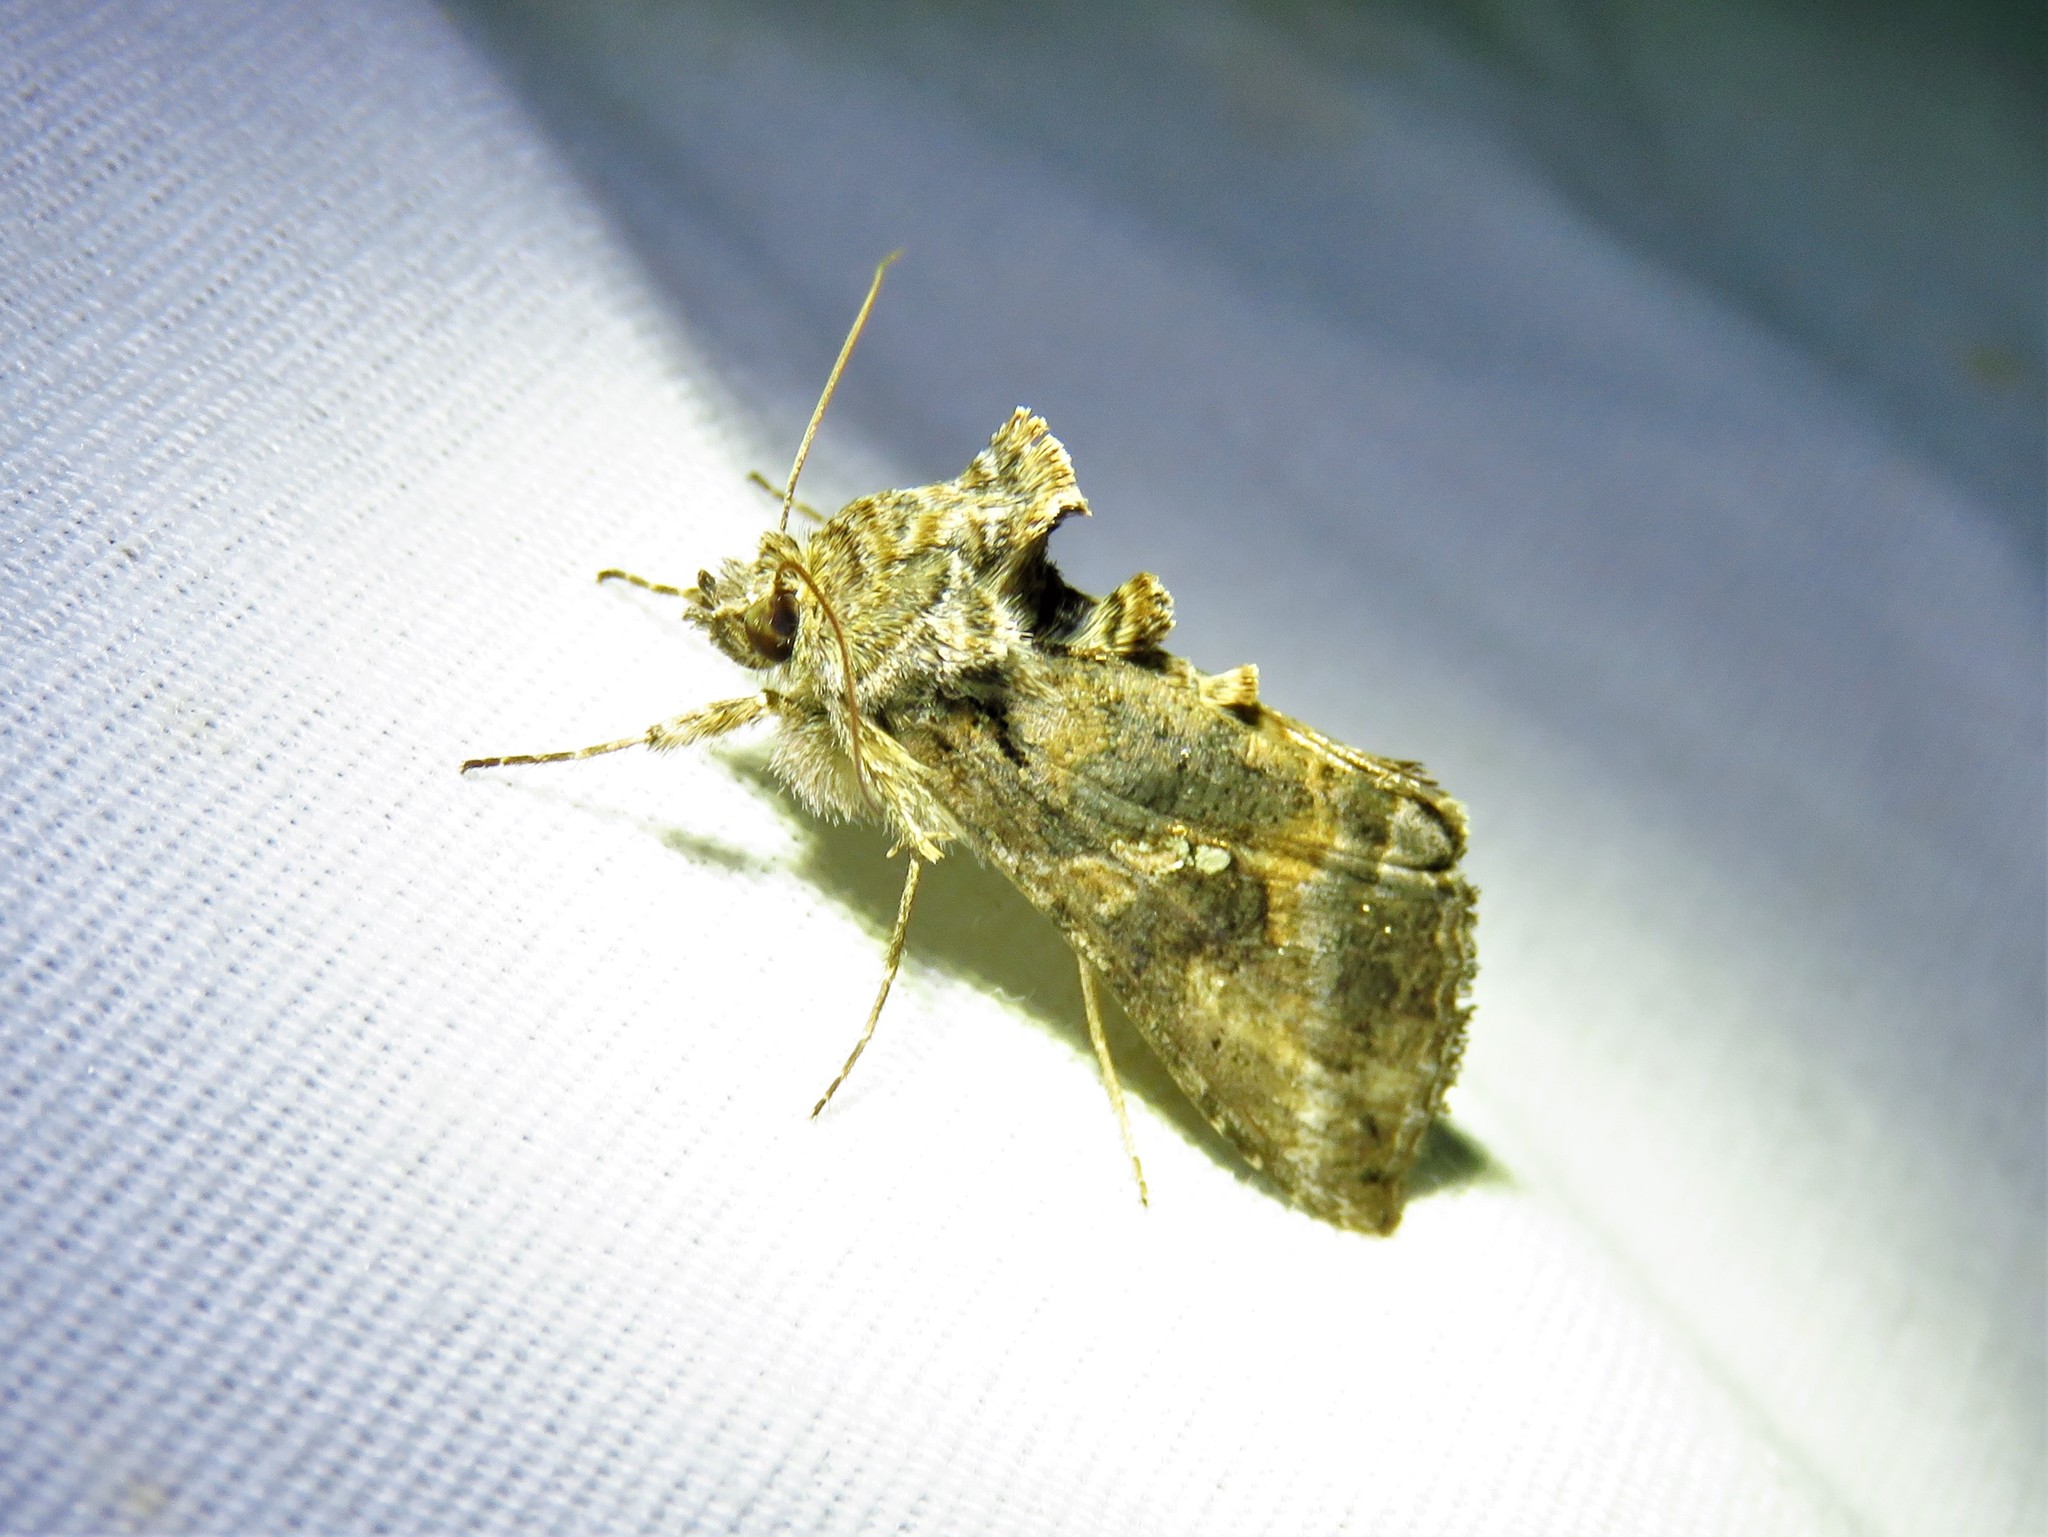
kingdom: Animalia
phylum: Arthropoda
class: Insecta
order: Lepidoptera
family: Noctuidae
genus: Rachiplusia
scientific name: Rachiplusia ou
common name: Gray looper moth
